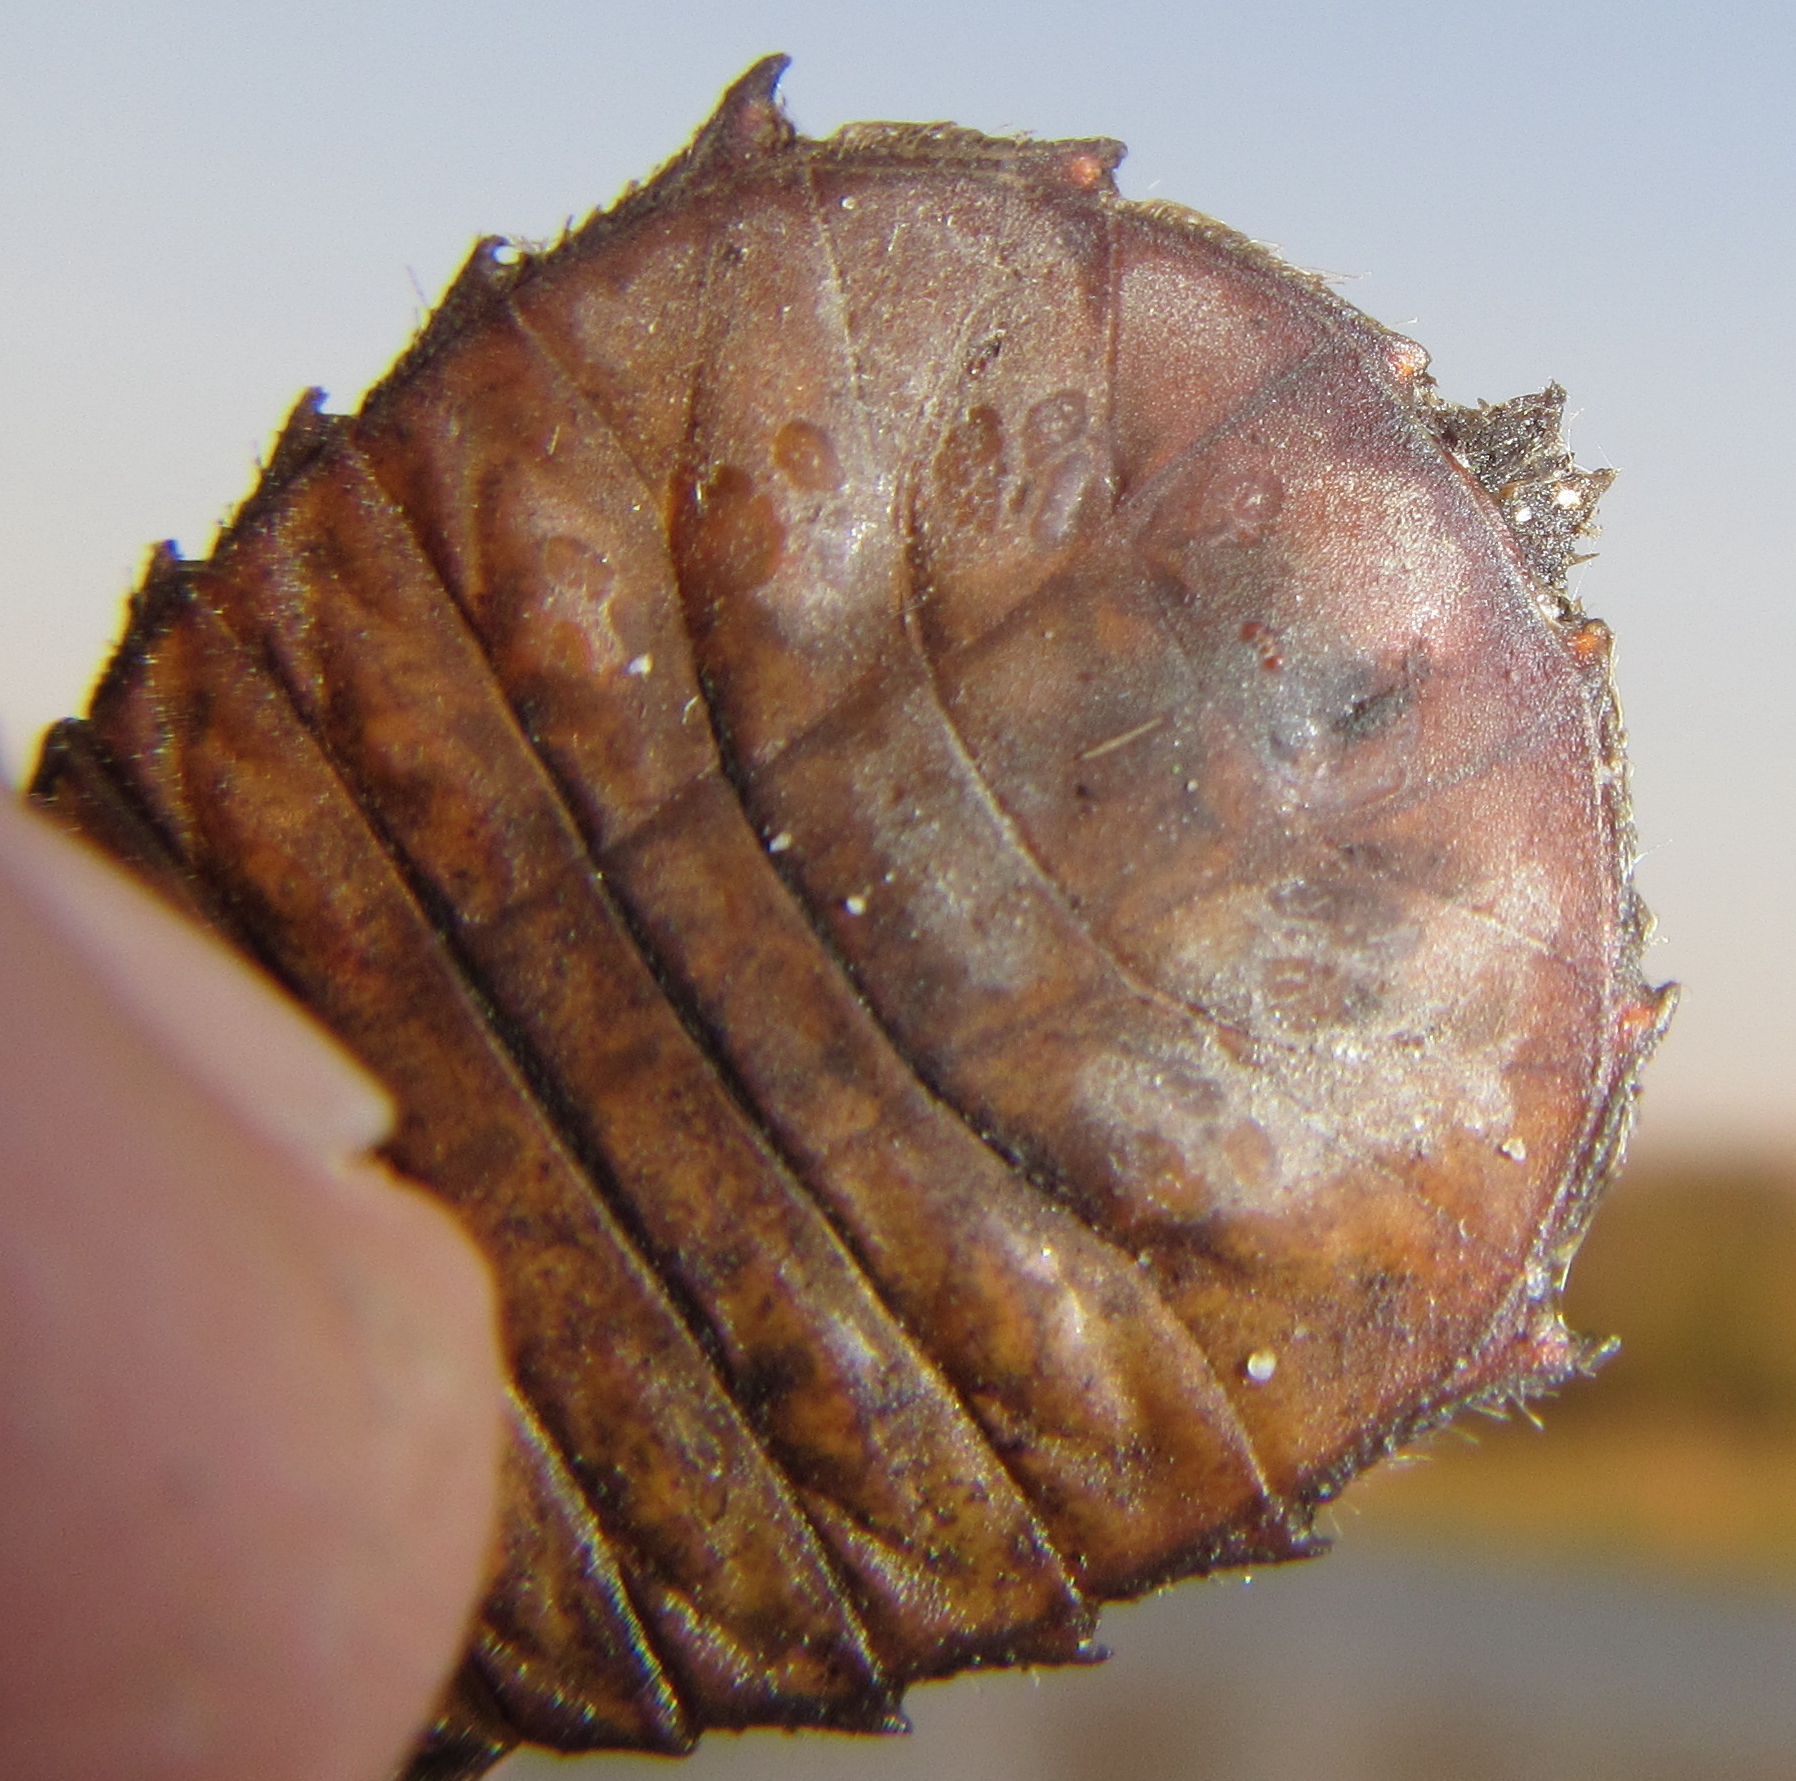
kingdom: Animalia
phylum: Arthropoda
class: Insecta
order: Odonata
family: Gomphidae
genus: Ictinogomphus
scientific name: Ictinogomphus ferox
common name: Common tiger
